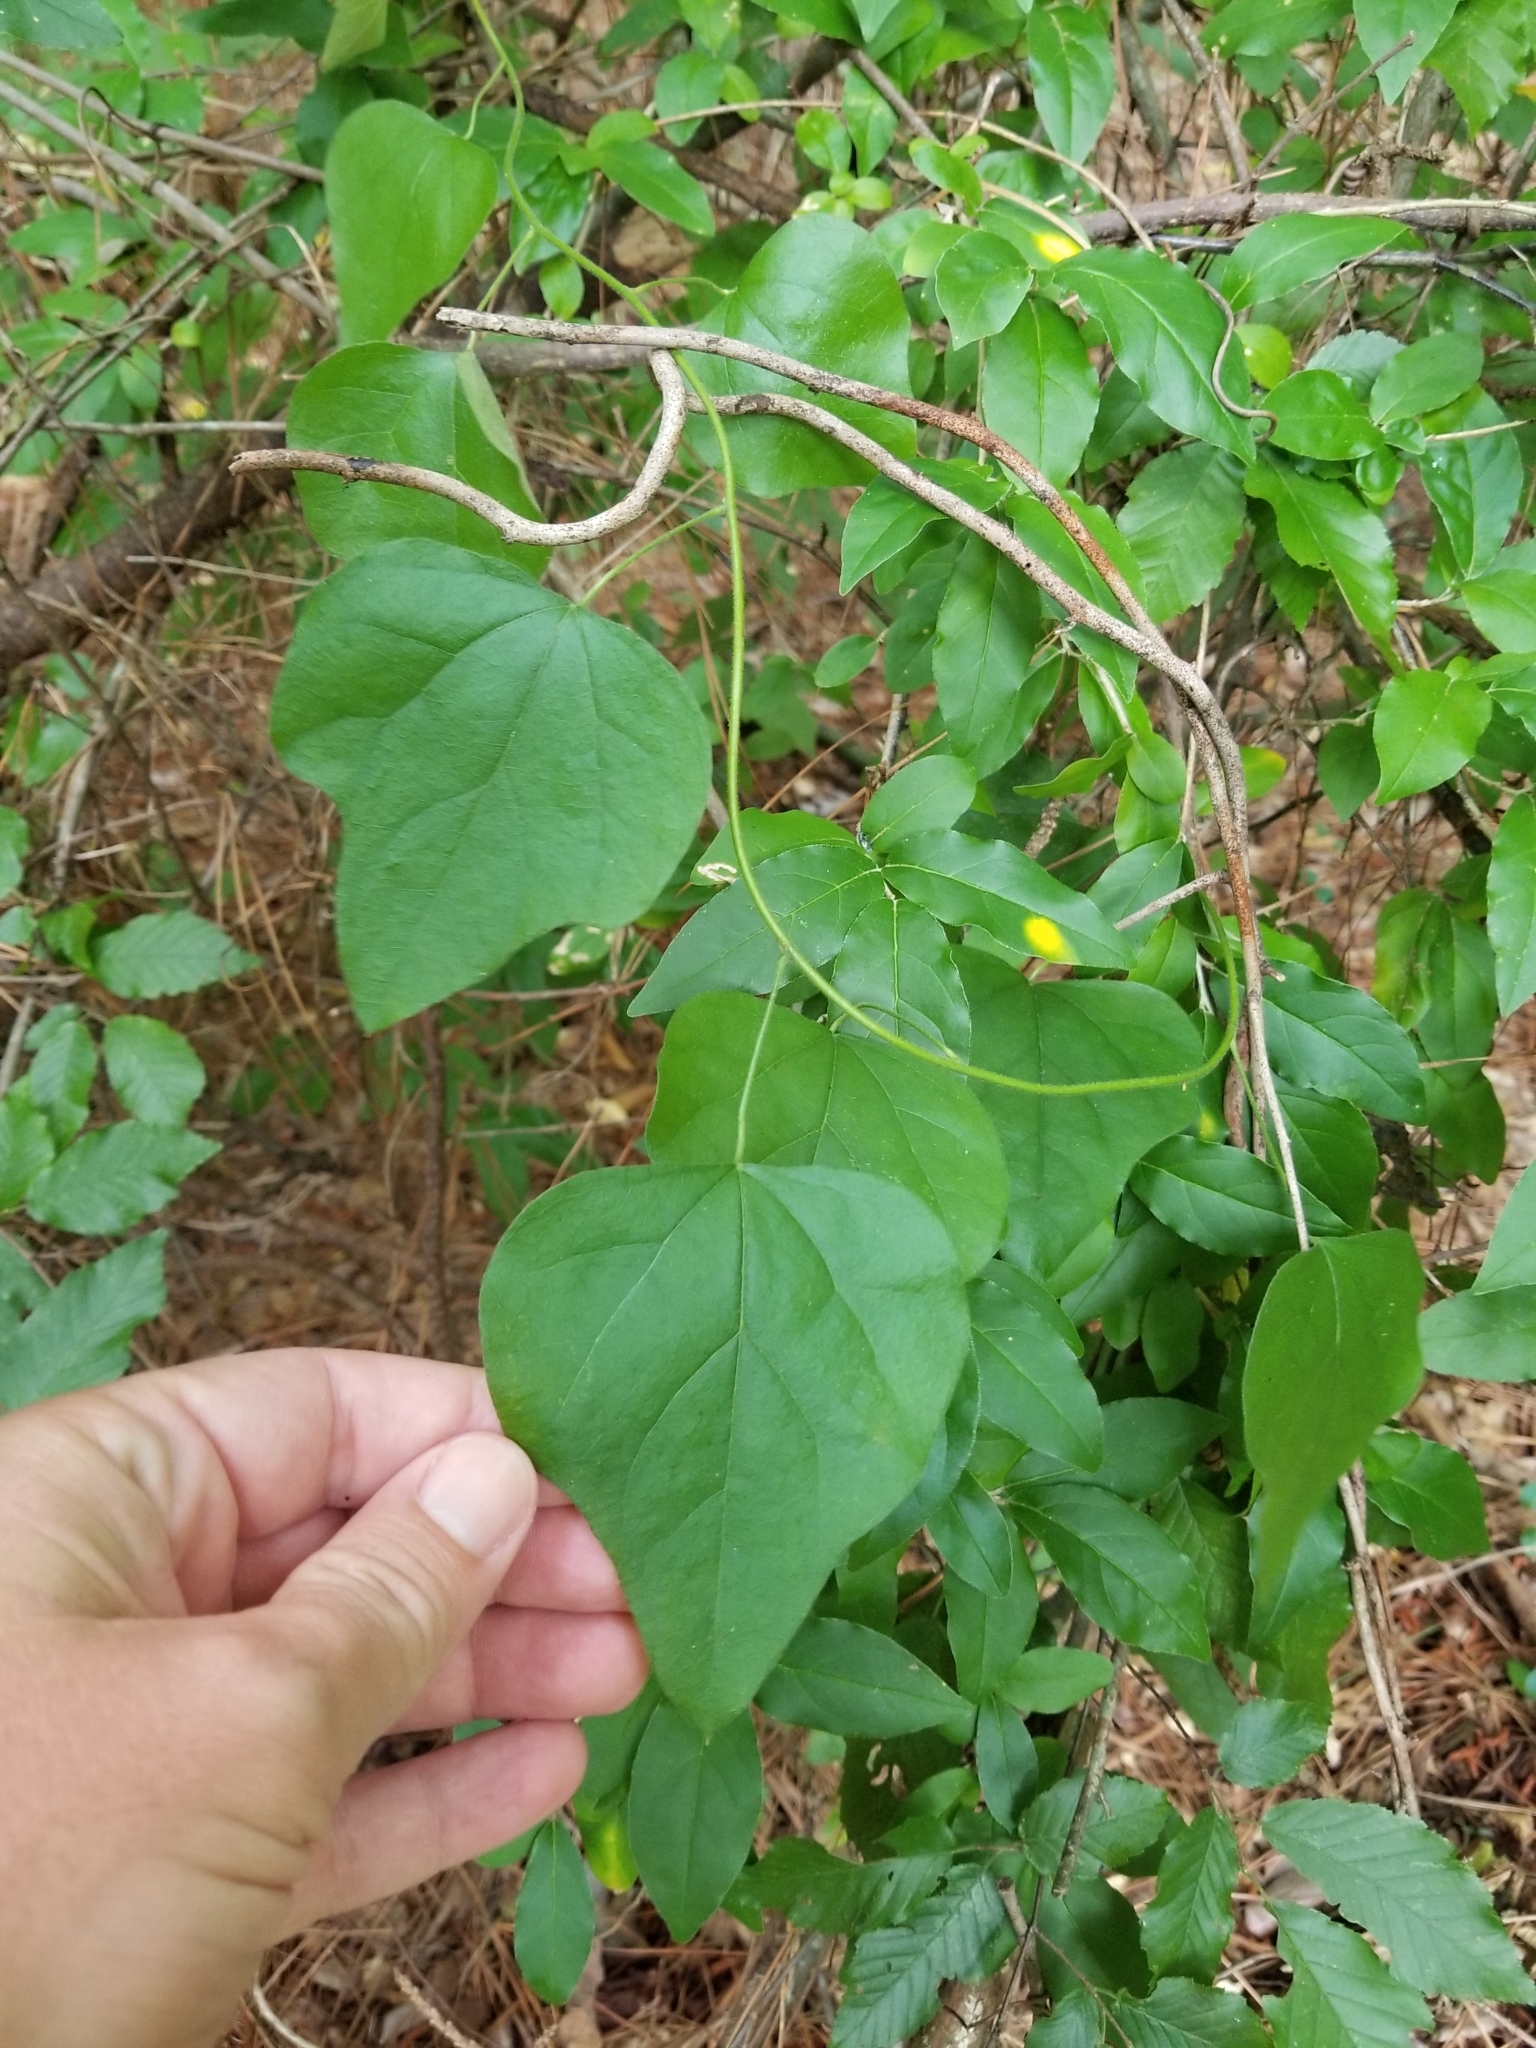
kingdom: Plantae
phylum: Tracheophyta
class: Magnoliopsida
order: Ranunculales
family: Menispermaceae
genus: Cocculus
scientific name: Cocculus carolinus
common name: Carolina moonseed
